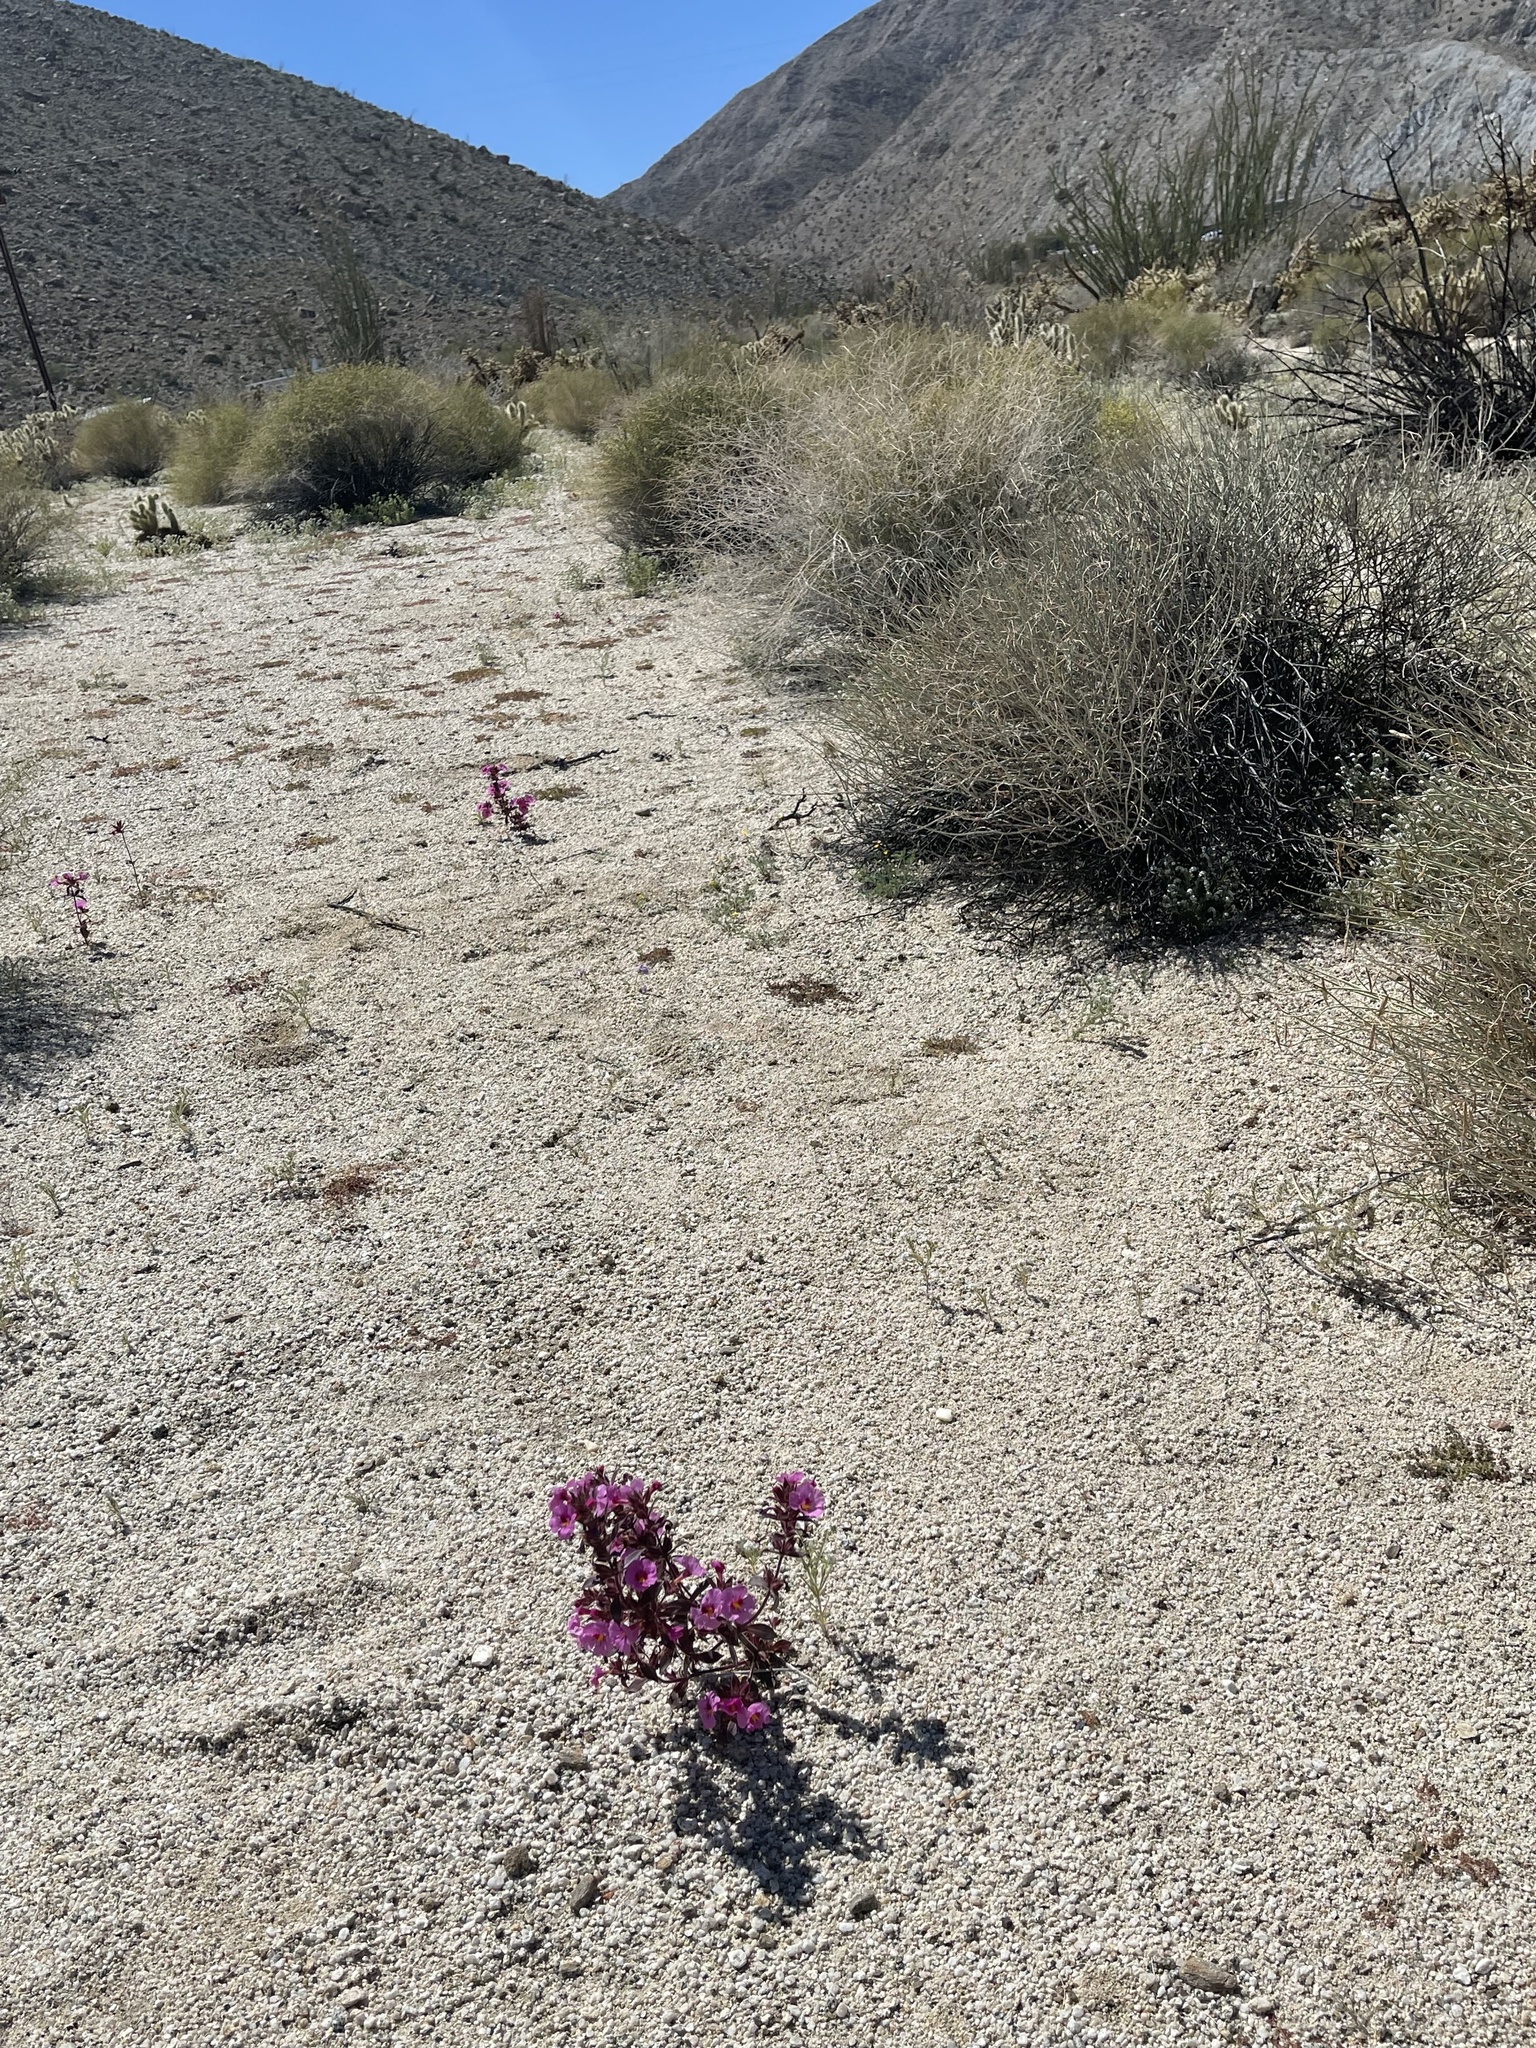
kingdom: Plantae
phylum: Tracheophyta
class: Magnoliopsida
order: Lamiales
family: Phrymaceae
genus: Diplacus
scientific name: Diplacus bigelovii
